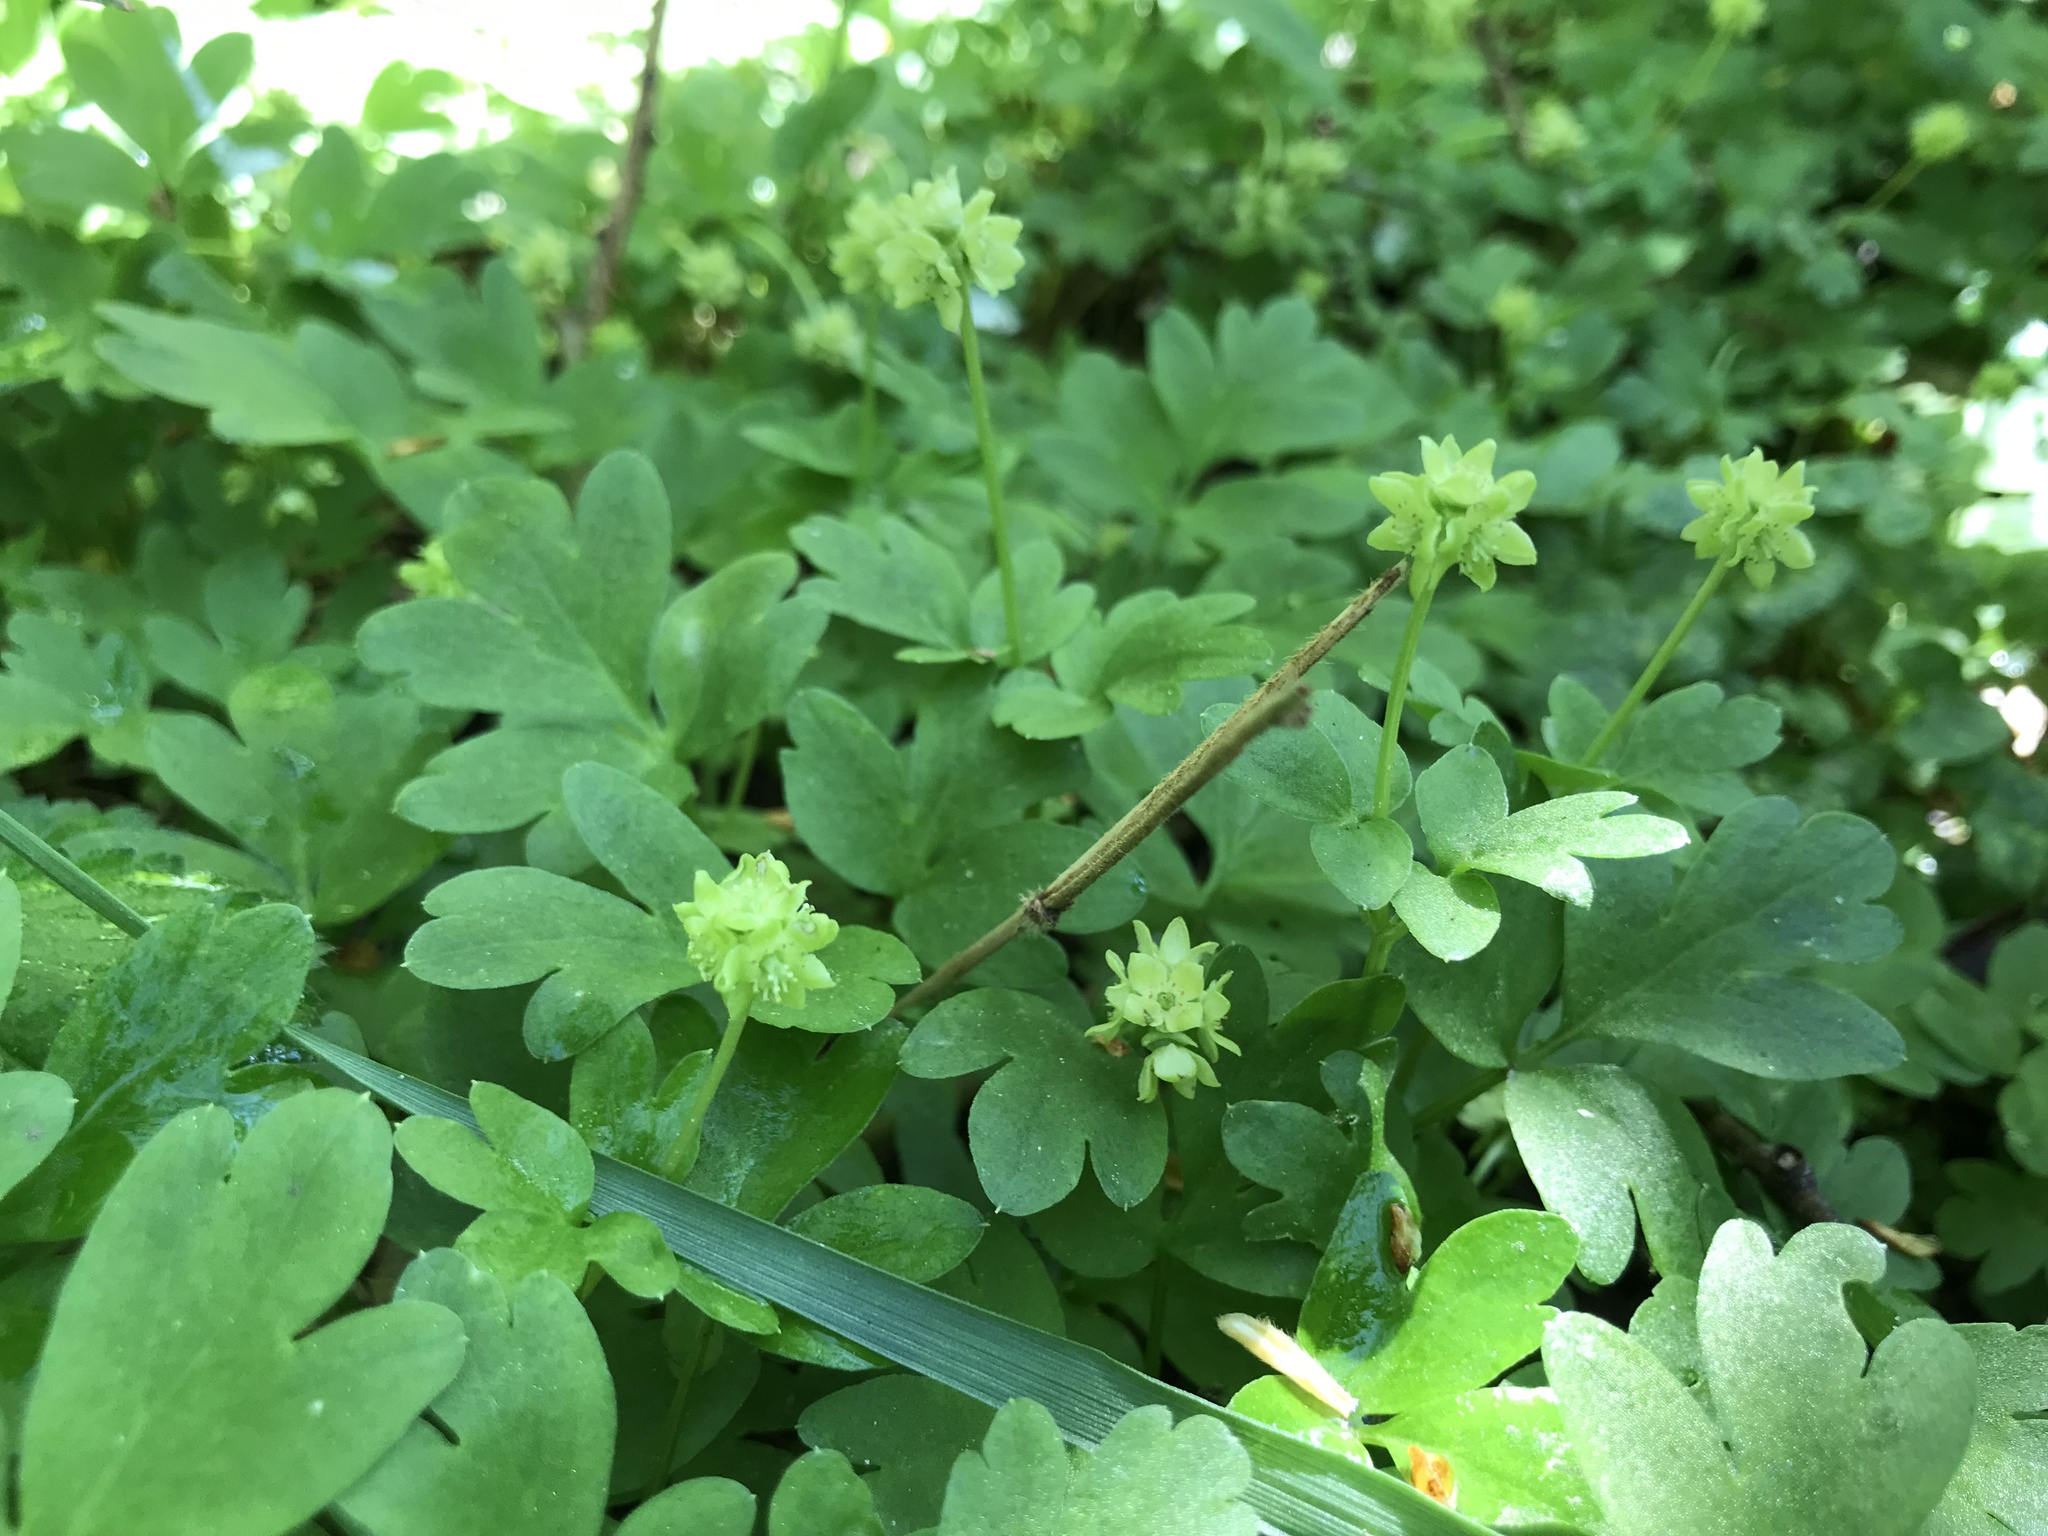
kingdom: Plantae
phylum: Tracheophyta
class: Magnoliopsida
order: Dipsacales
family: Viburnaceae
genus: Adoxa
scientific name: Adoxa moschatellina
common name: Moschatel
